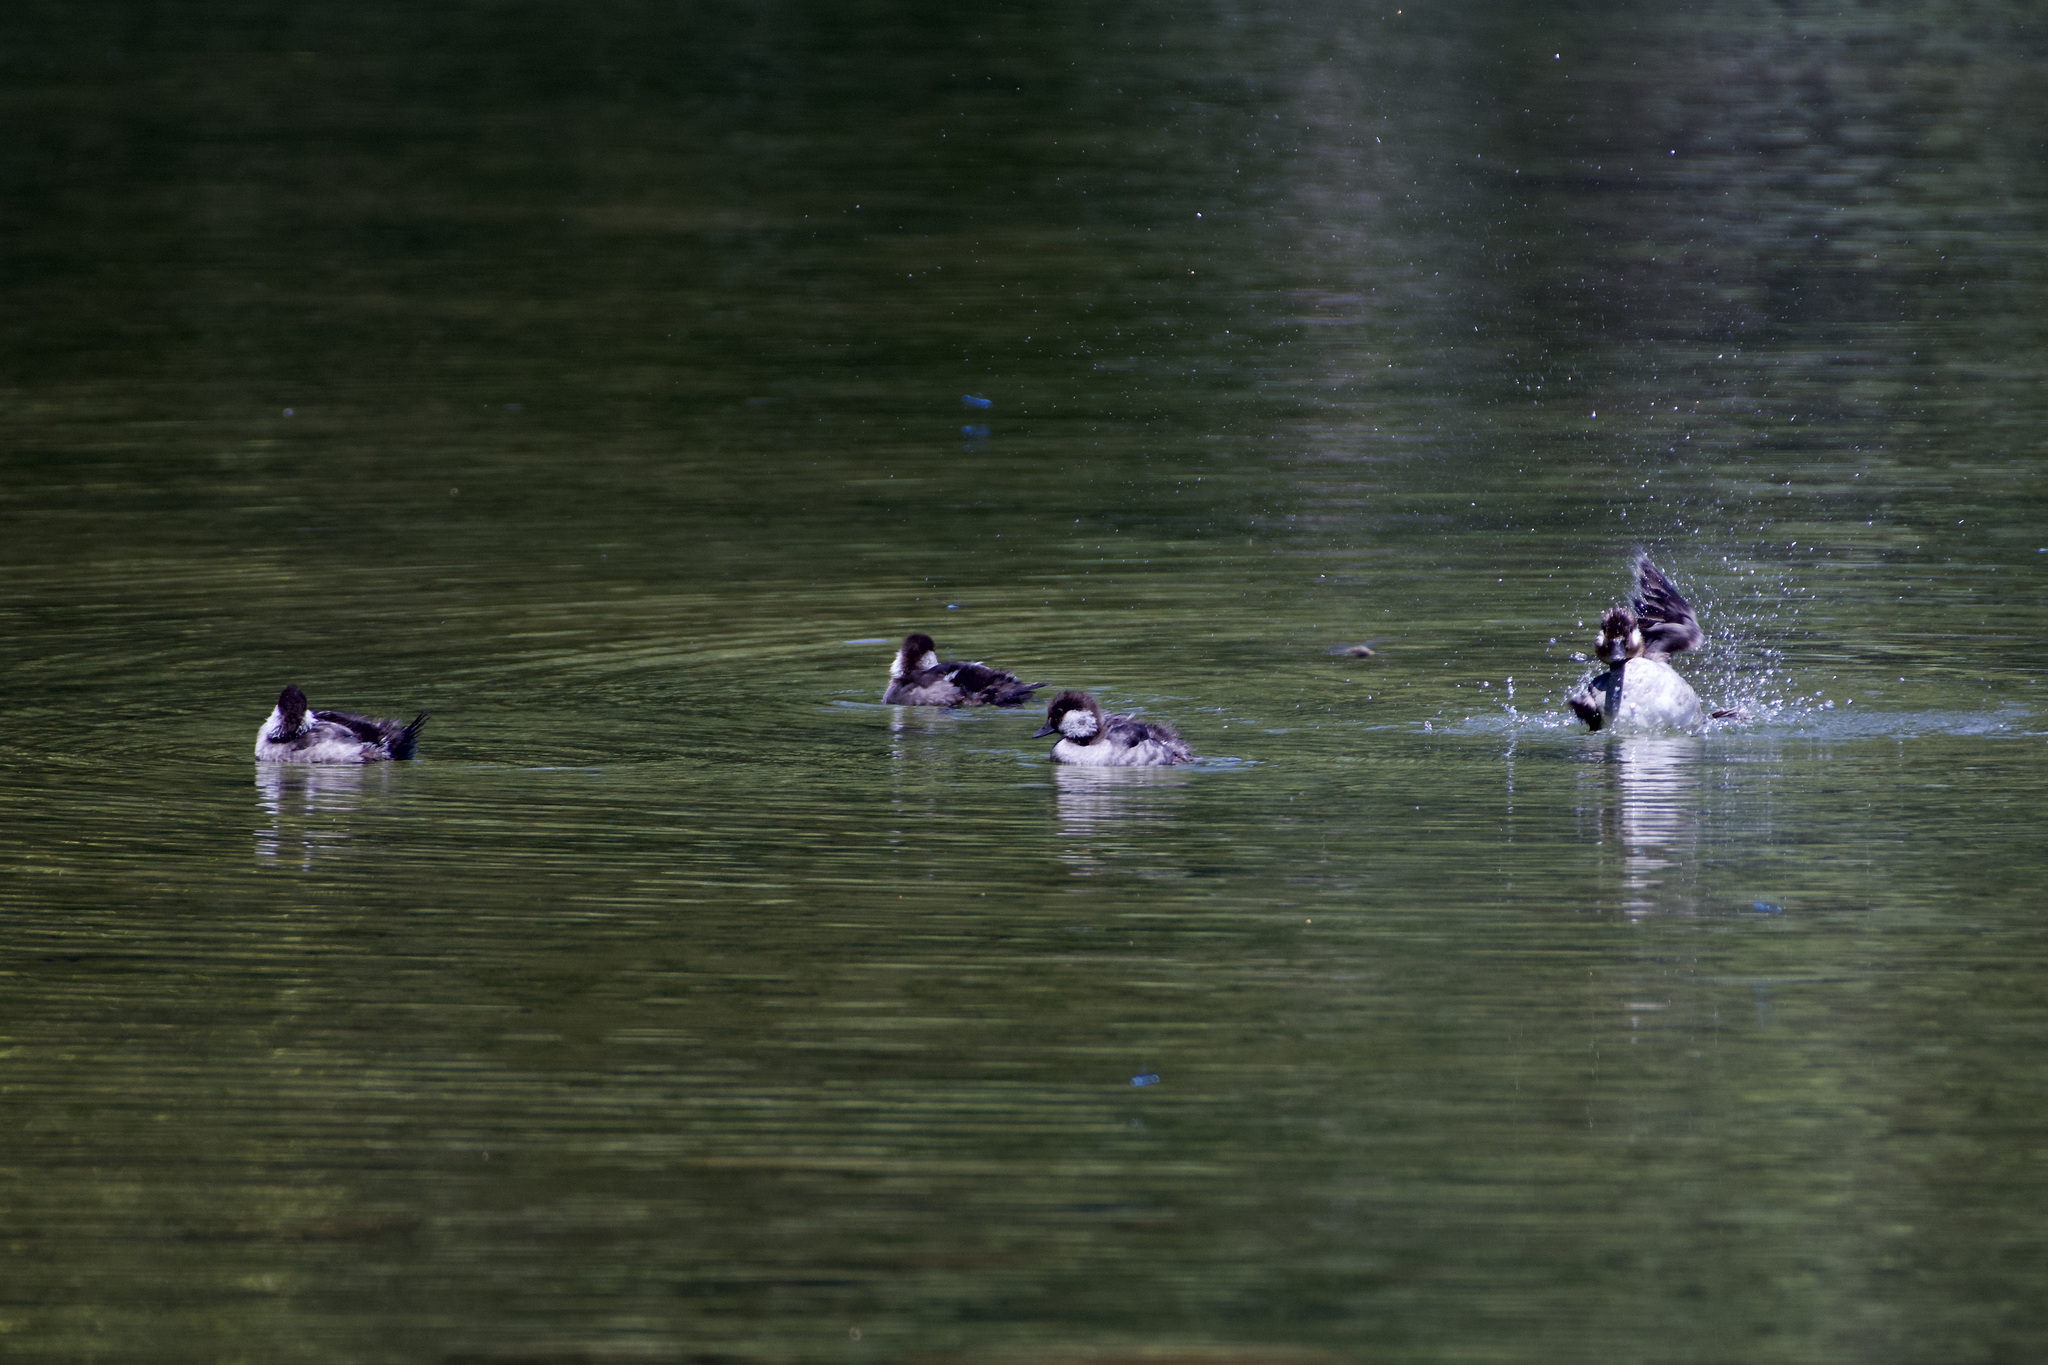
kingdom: Animalia
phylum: Chordata
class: Aves
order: Anseriformes
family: Anatidae
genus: Bucephala
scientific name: Bucephala albeola
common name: Bufflehead
